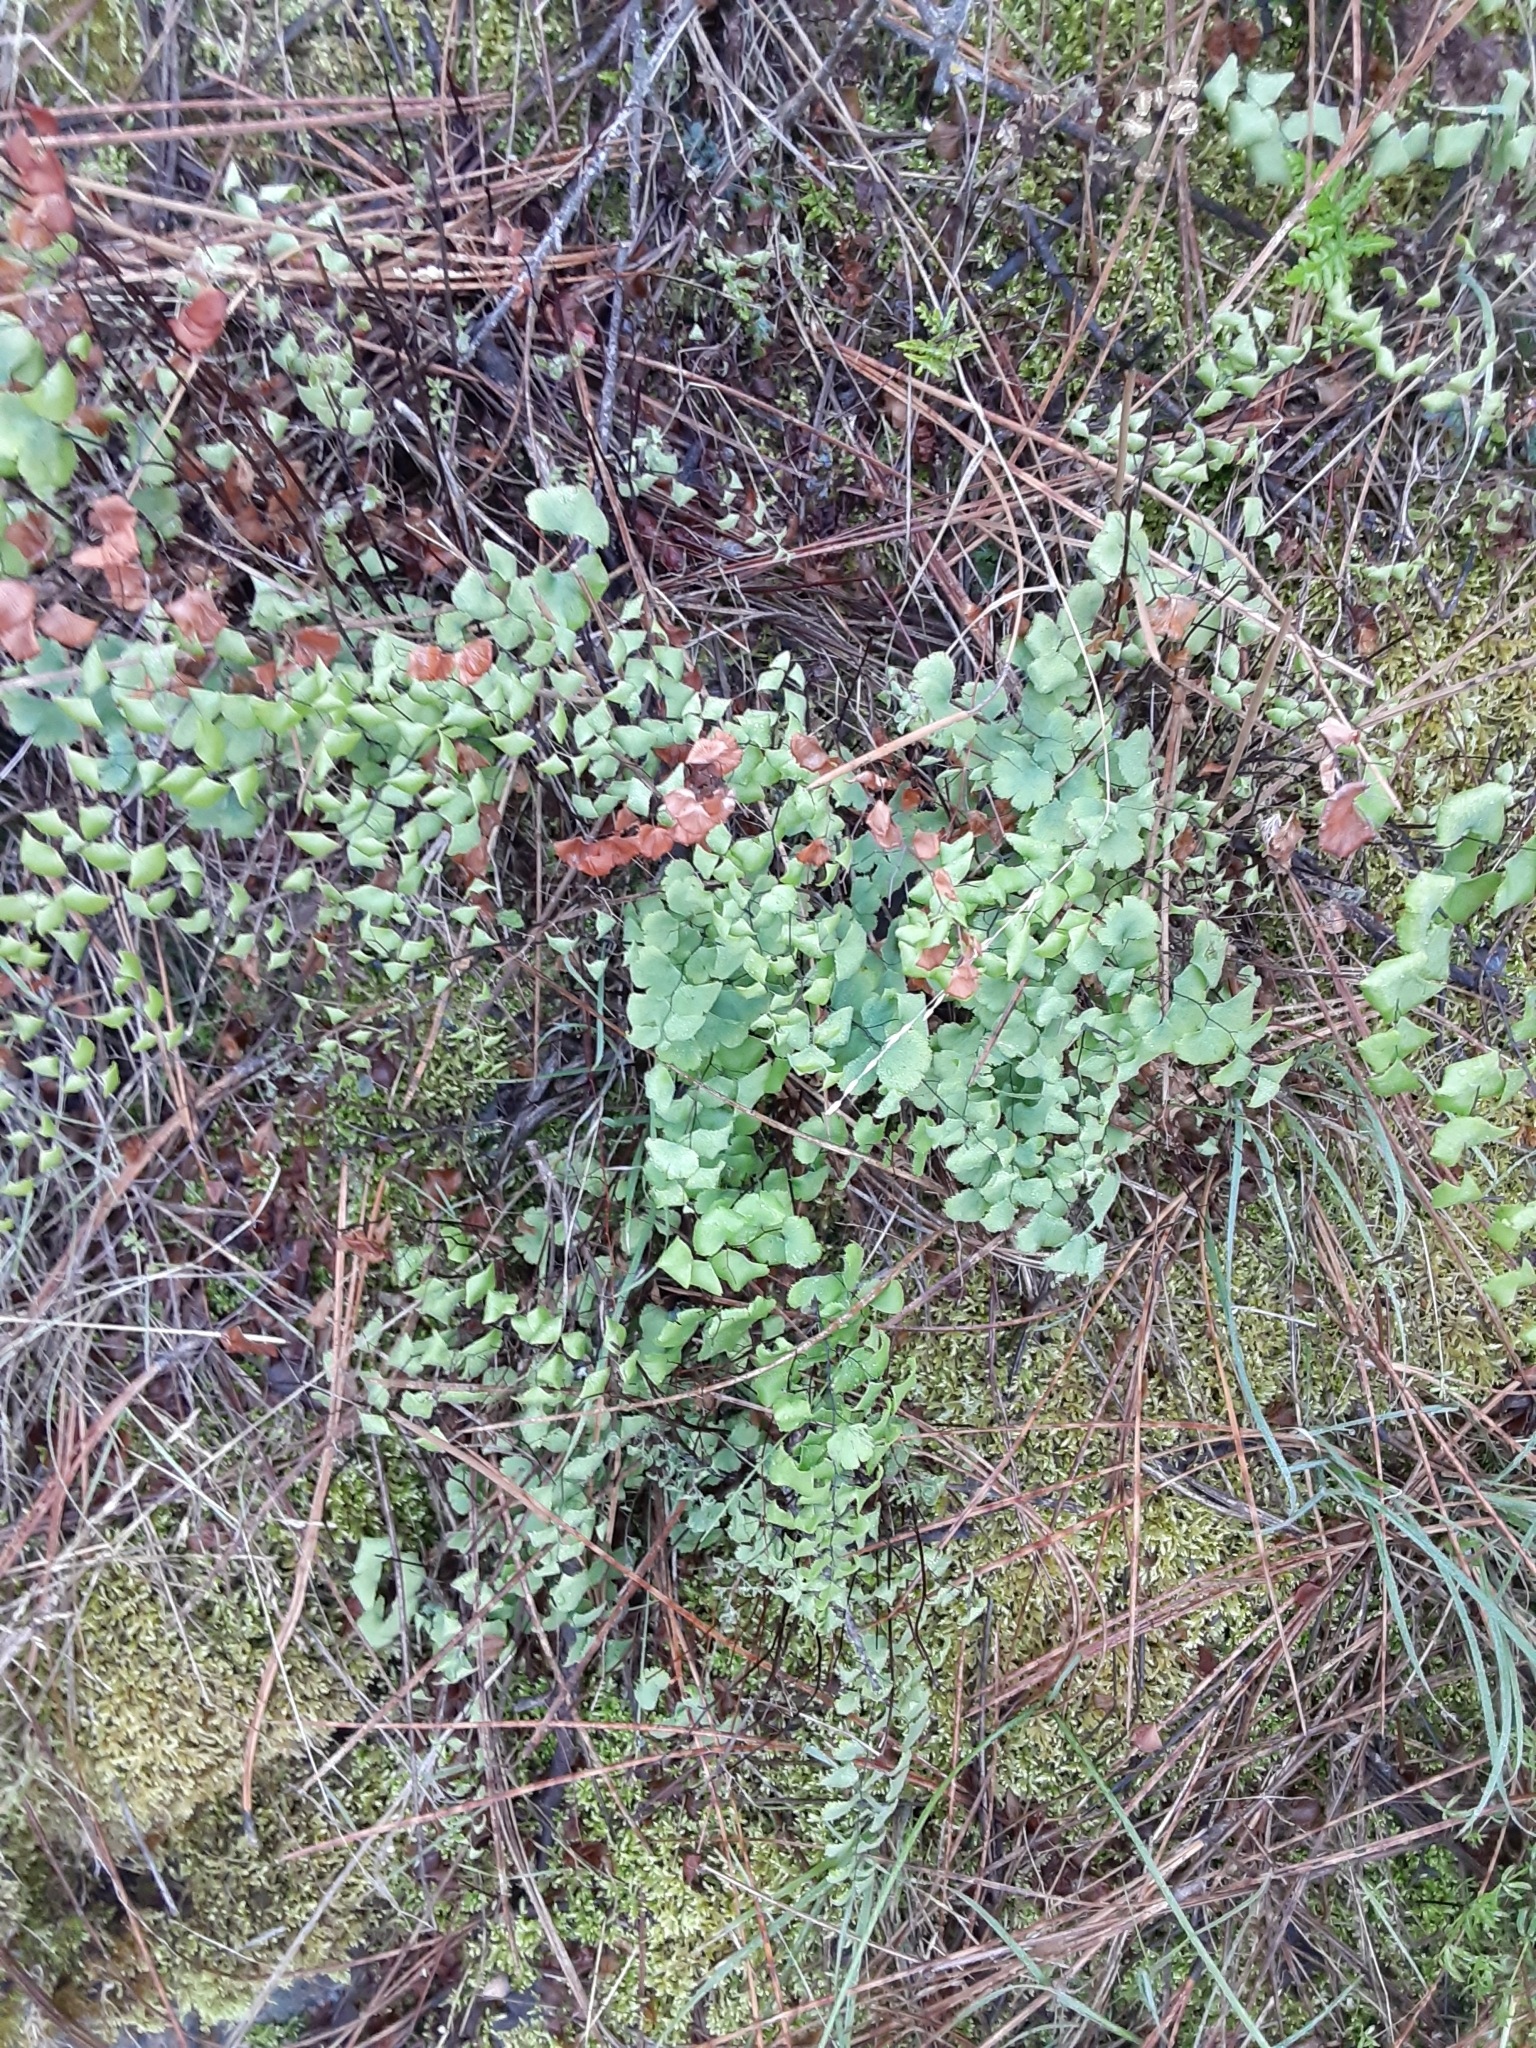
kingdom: Plantae
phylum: Tracheophyta
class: Polypodiopsida
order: Polypodiales
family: Pteridaceae
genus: Adiantum
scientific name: Adiantum jordanii
